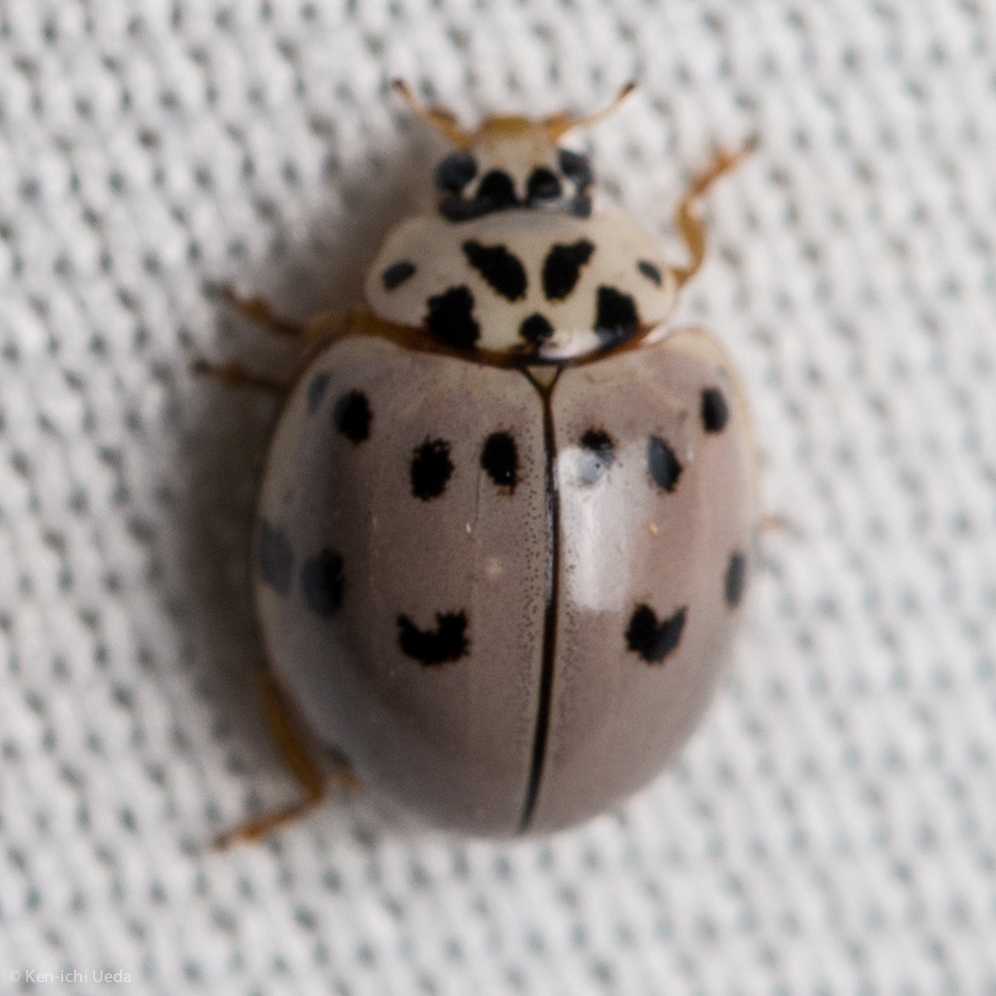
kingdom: Animalia
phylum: Arthropoda
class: Insecta
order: Coleoptera
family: Coccinellidae
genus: Olla
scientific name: Olla v-nigrum
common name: Ashy gray lady beetle
